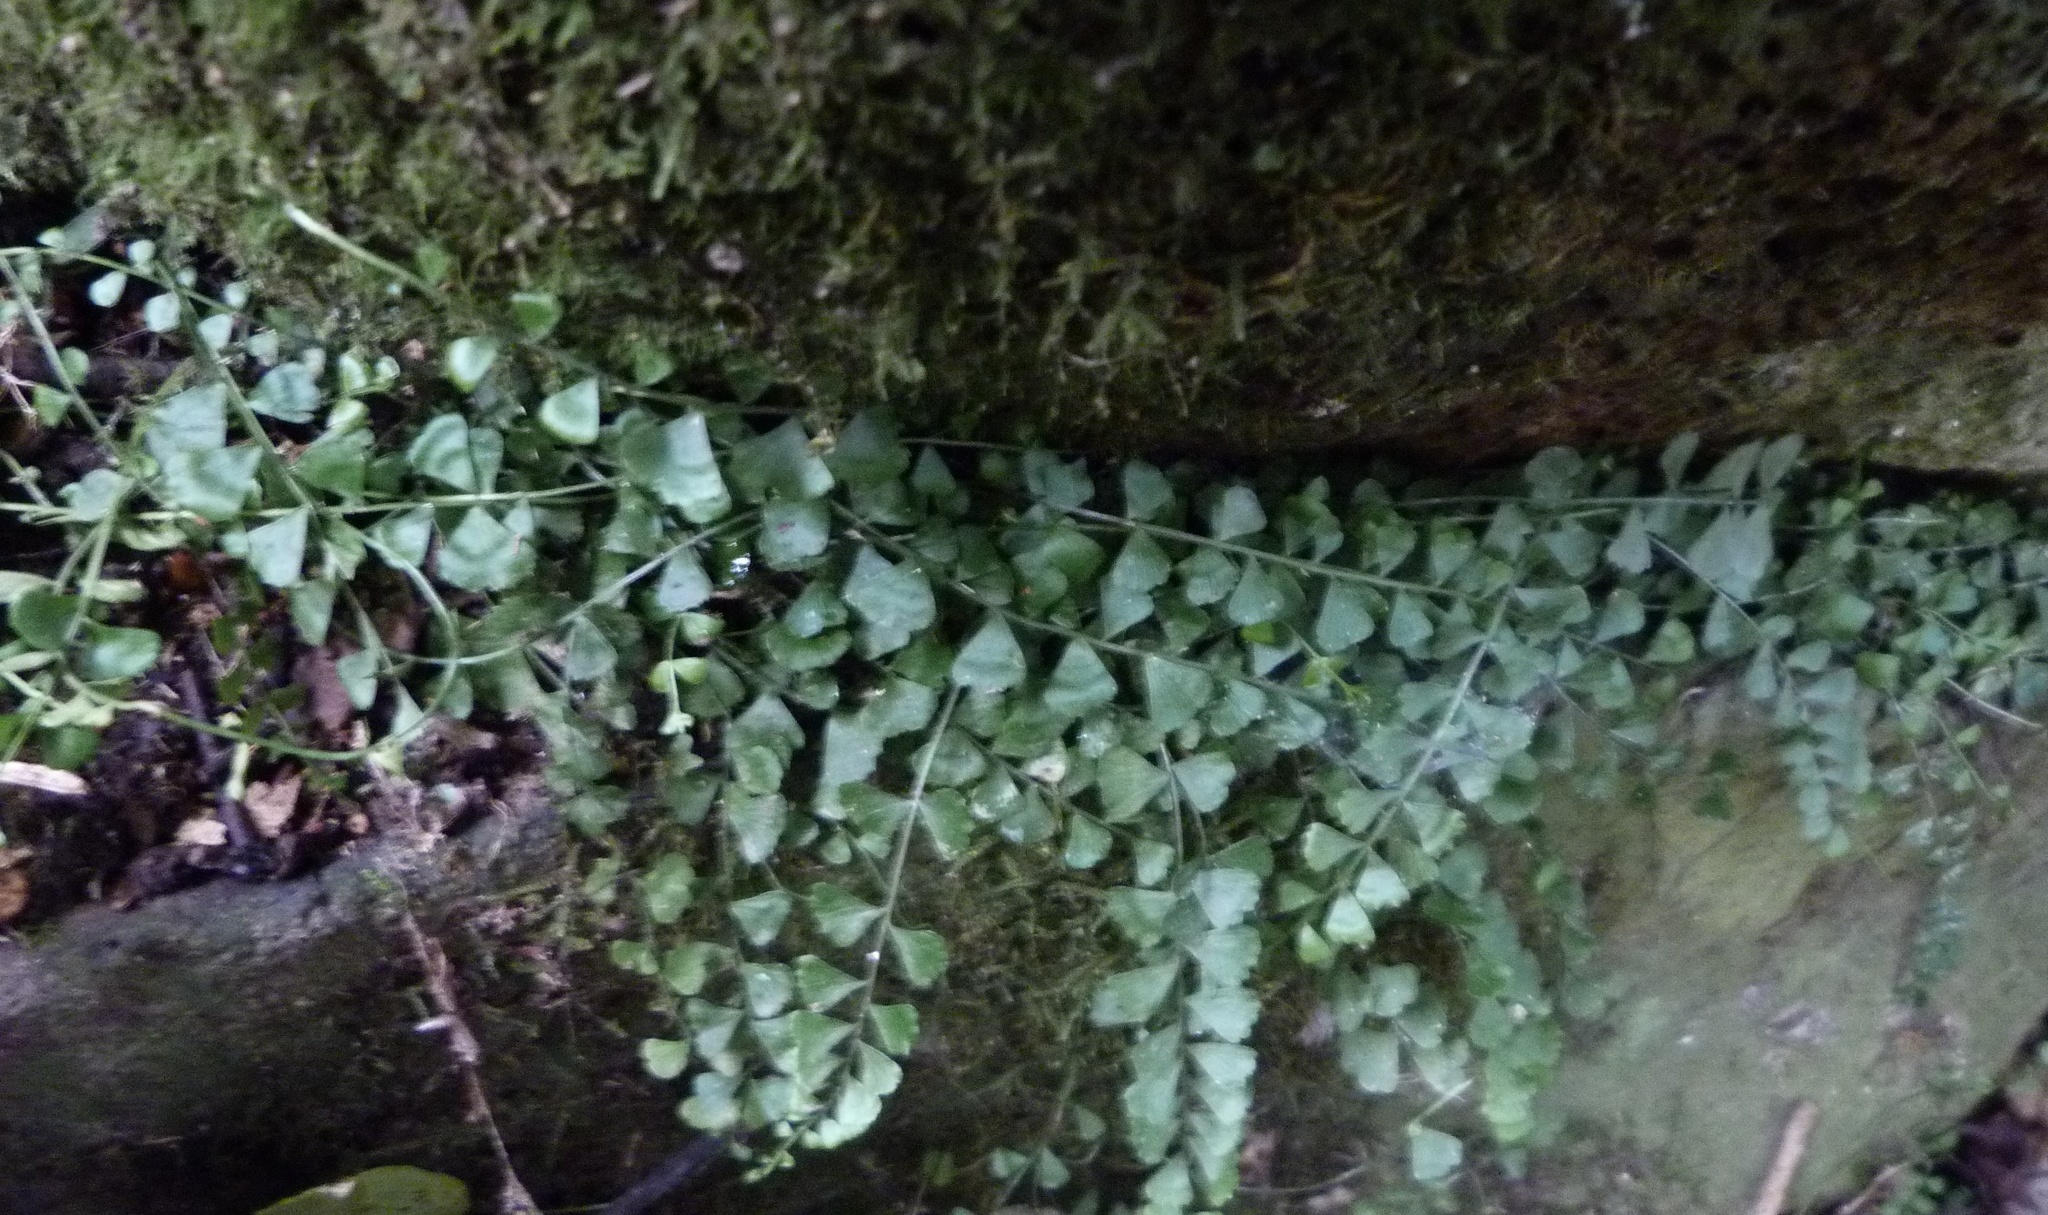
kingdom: Plantae
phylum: Tracheophyta
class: Polypodiopsida
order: Polypodiales
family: Aspleniaceae
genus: Asplenium
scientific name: Asplenium flabellifolium
